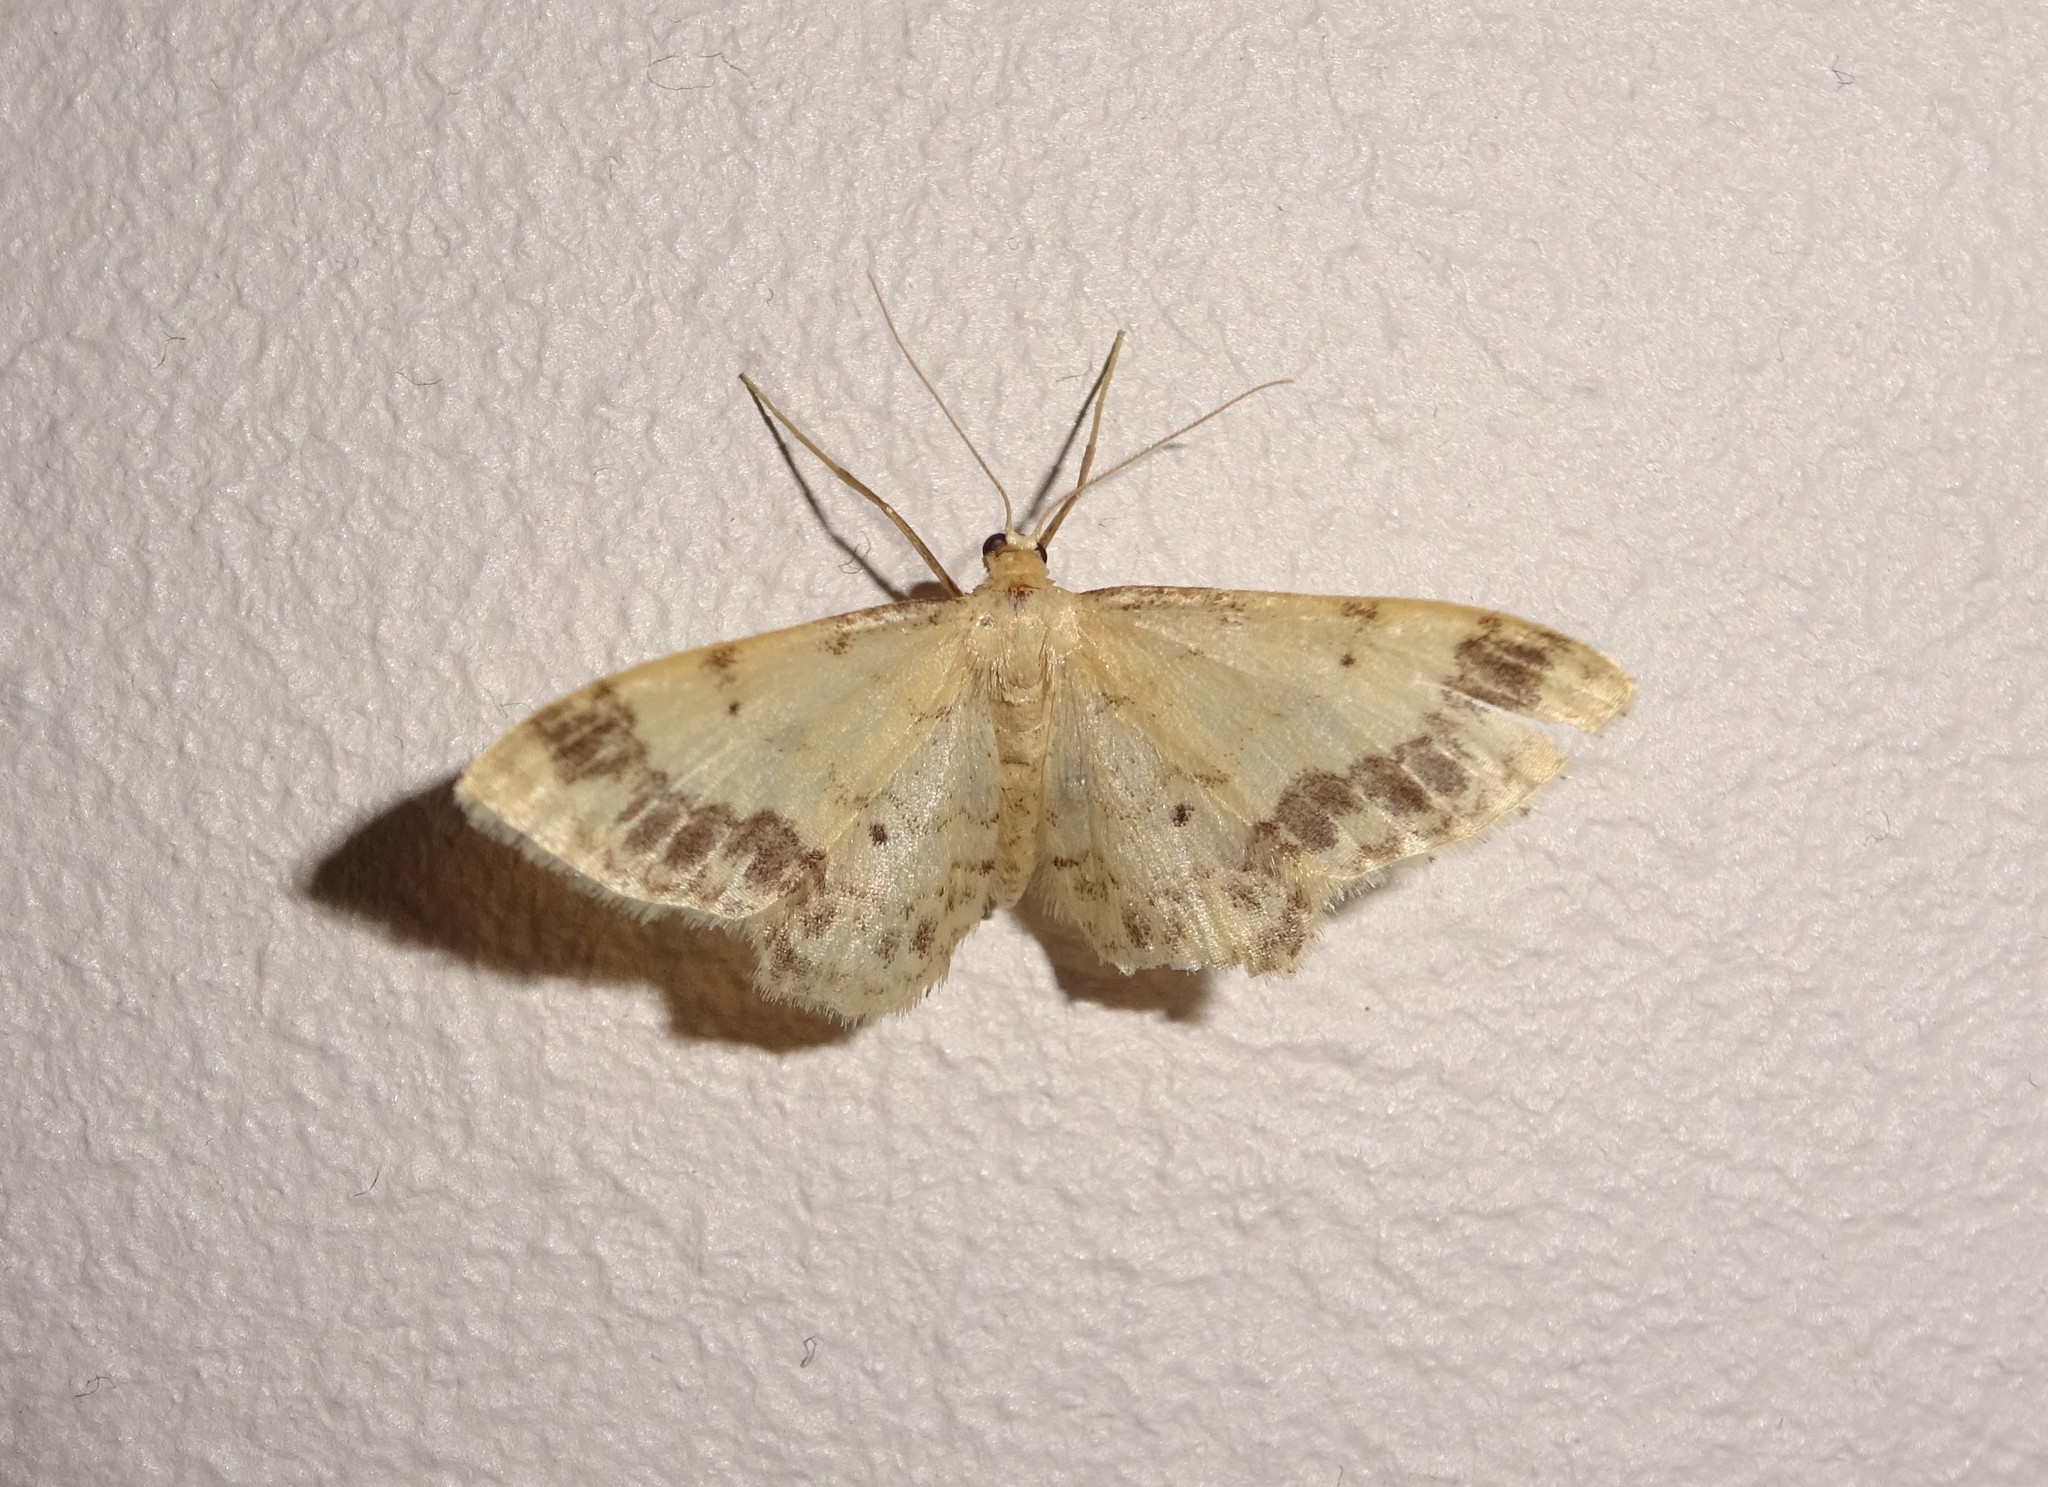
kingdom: Animalia
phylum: Arthropoda
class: Insecta
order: Lepidoptera
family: Geometridae
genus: Idaea
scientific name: Idaea trigeminata
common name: Treble brown spot
